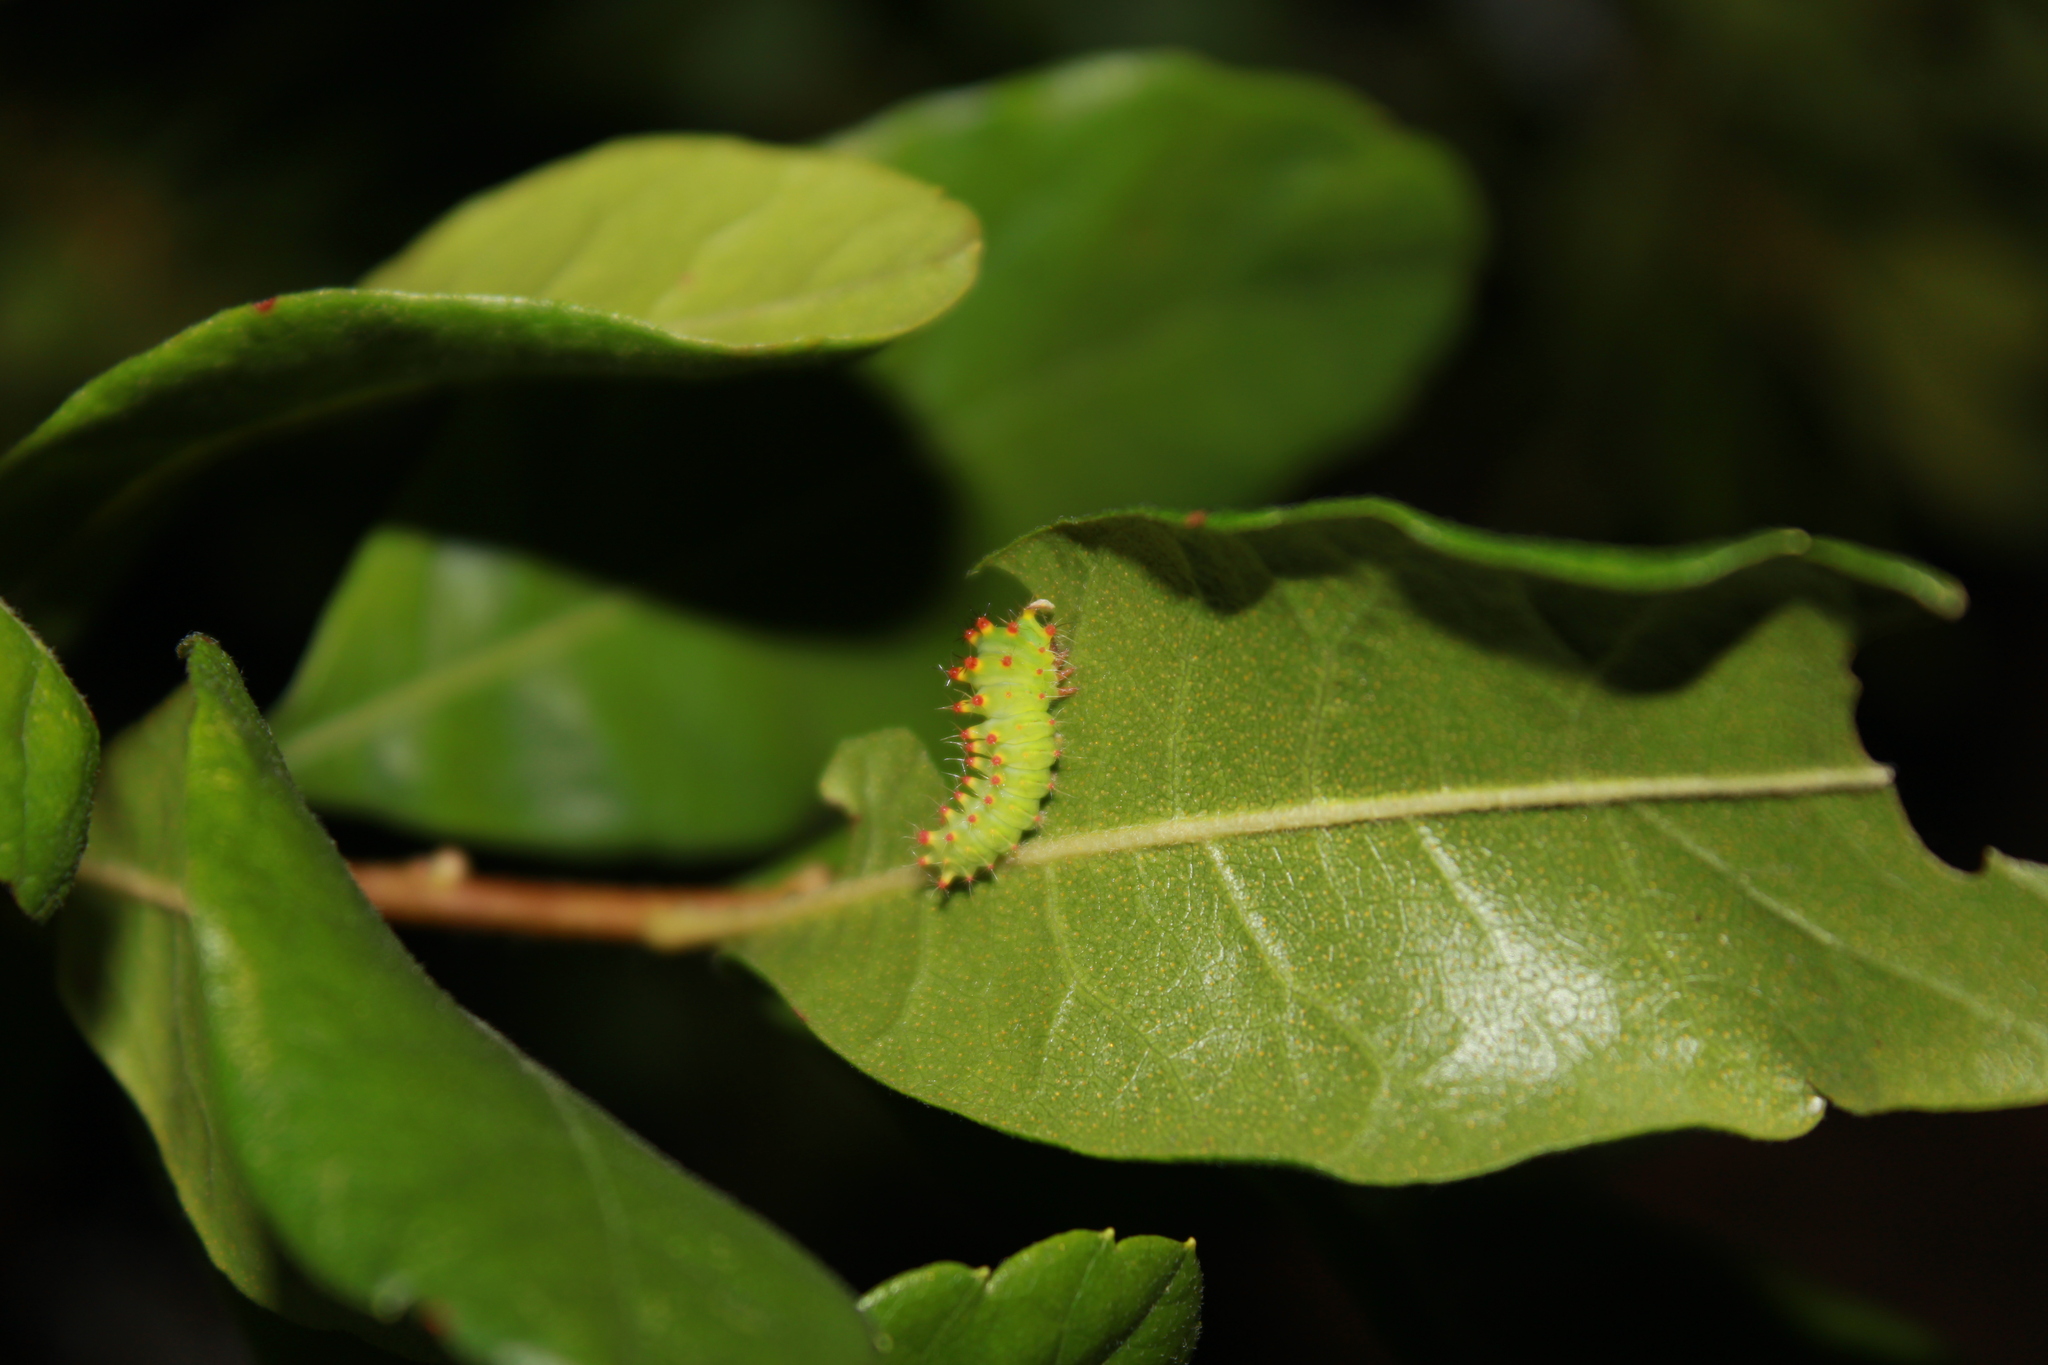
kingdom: Animalia
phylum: Arthropoda
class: Insecta
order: Lepidoptera
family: Saturniidae
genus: Antheraea
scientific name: Antheraea polyphemus
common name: Polyphemus moth
